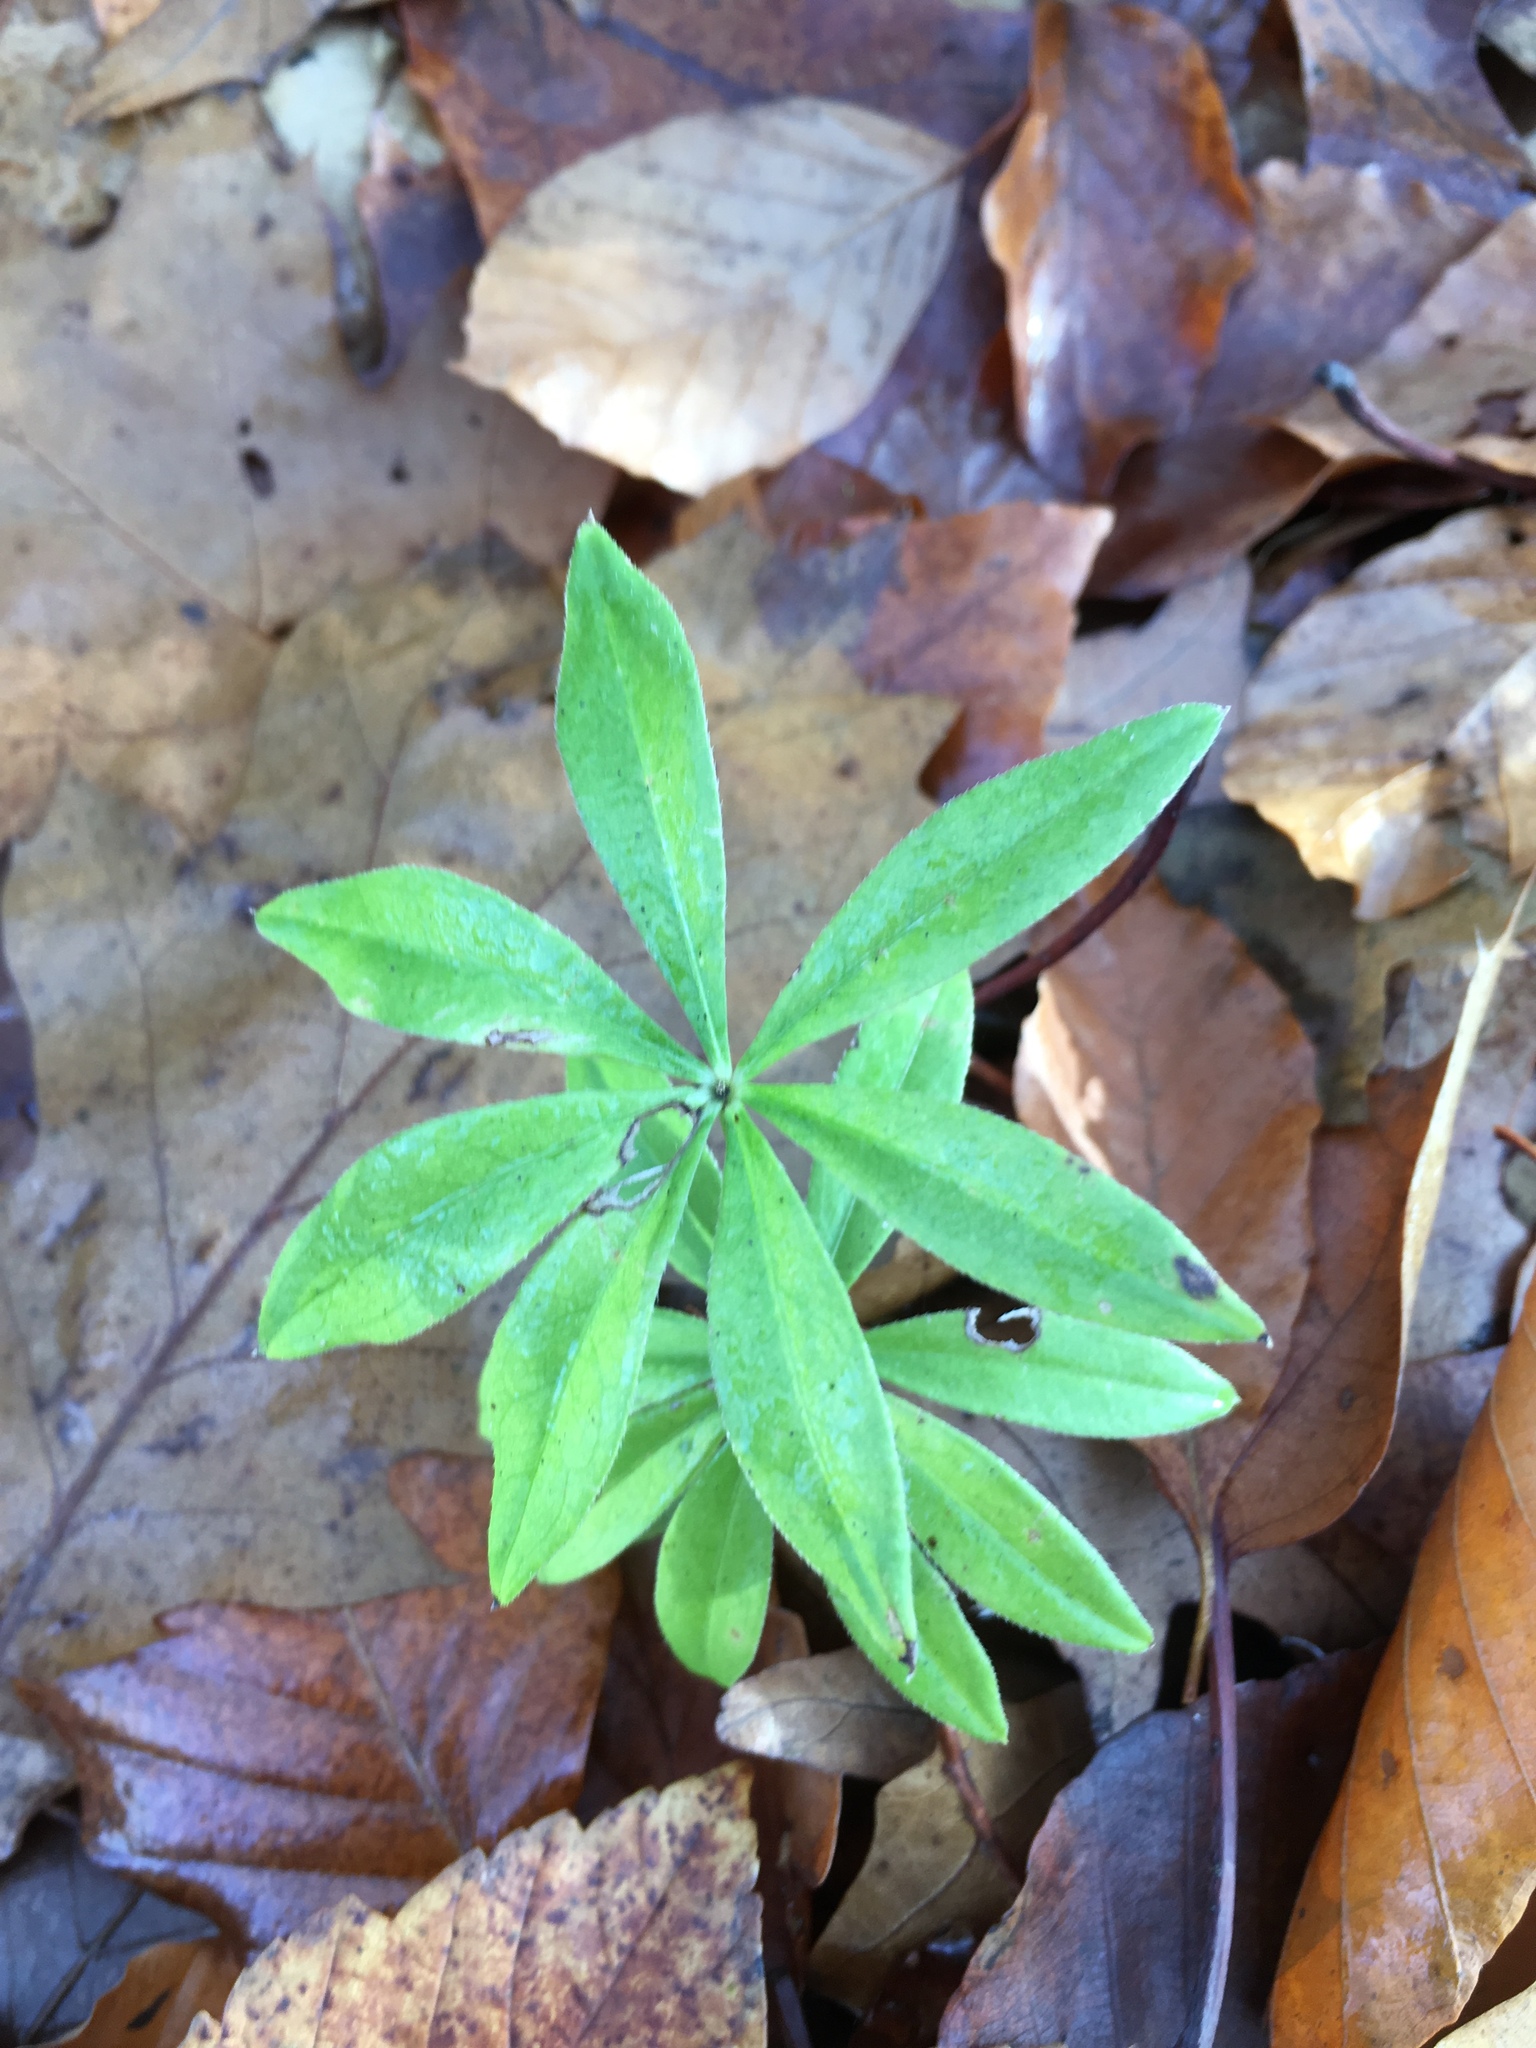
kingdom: Plantae
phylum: Tracheophyta
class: Magnoliopsida
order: Gentianales
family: Rubiaceae
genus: Galium
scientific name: Galium odoratum
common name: Sweet woodruff
